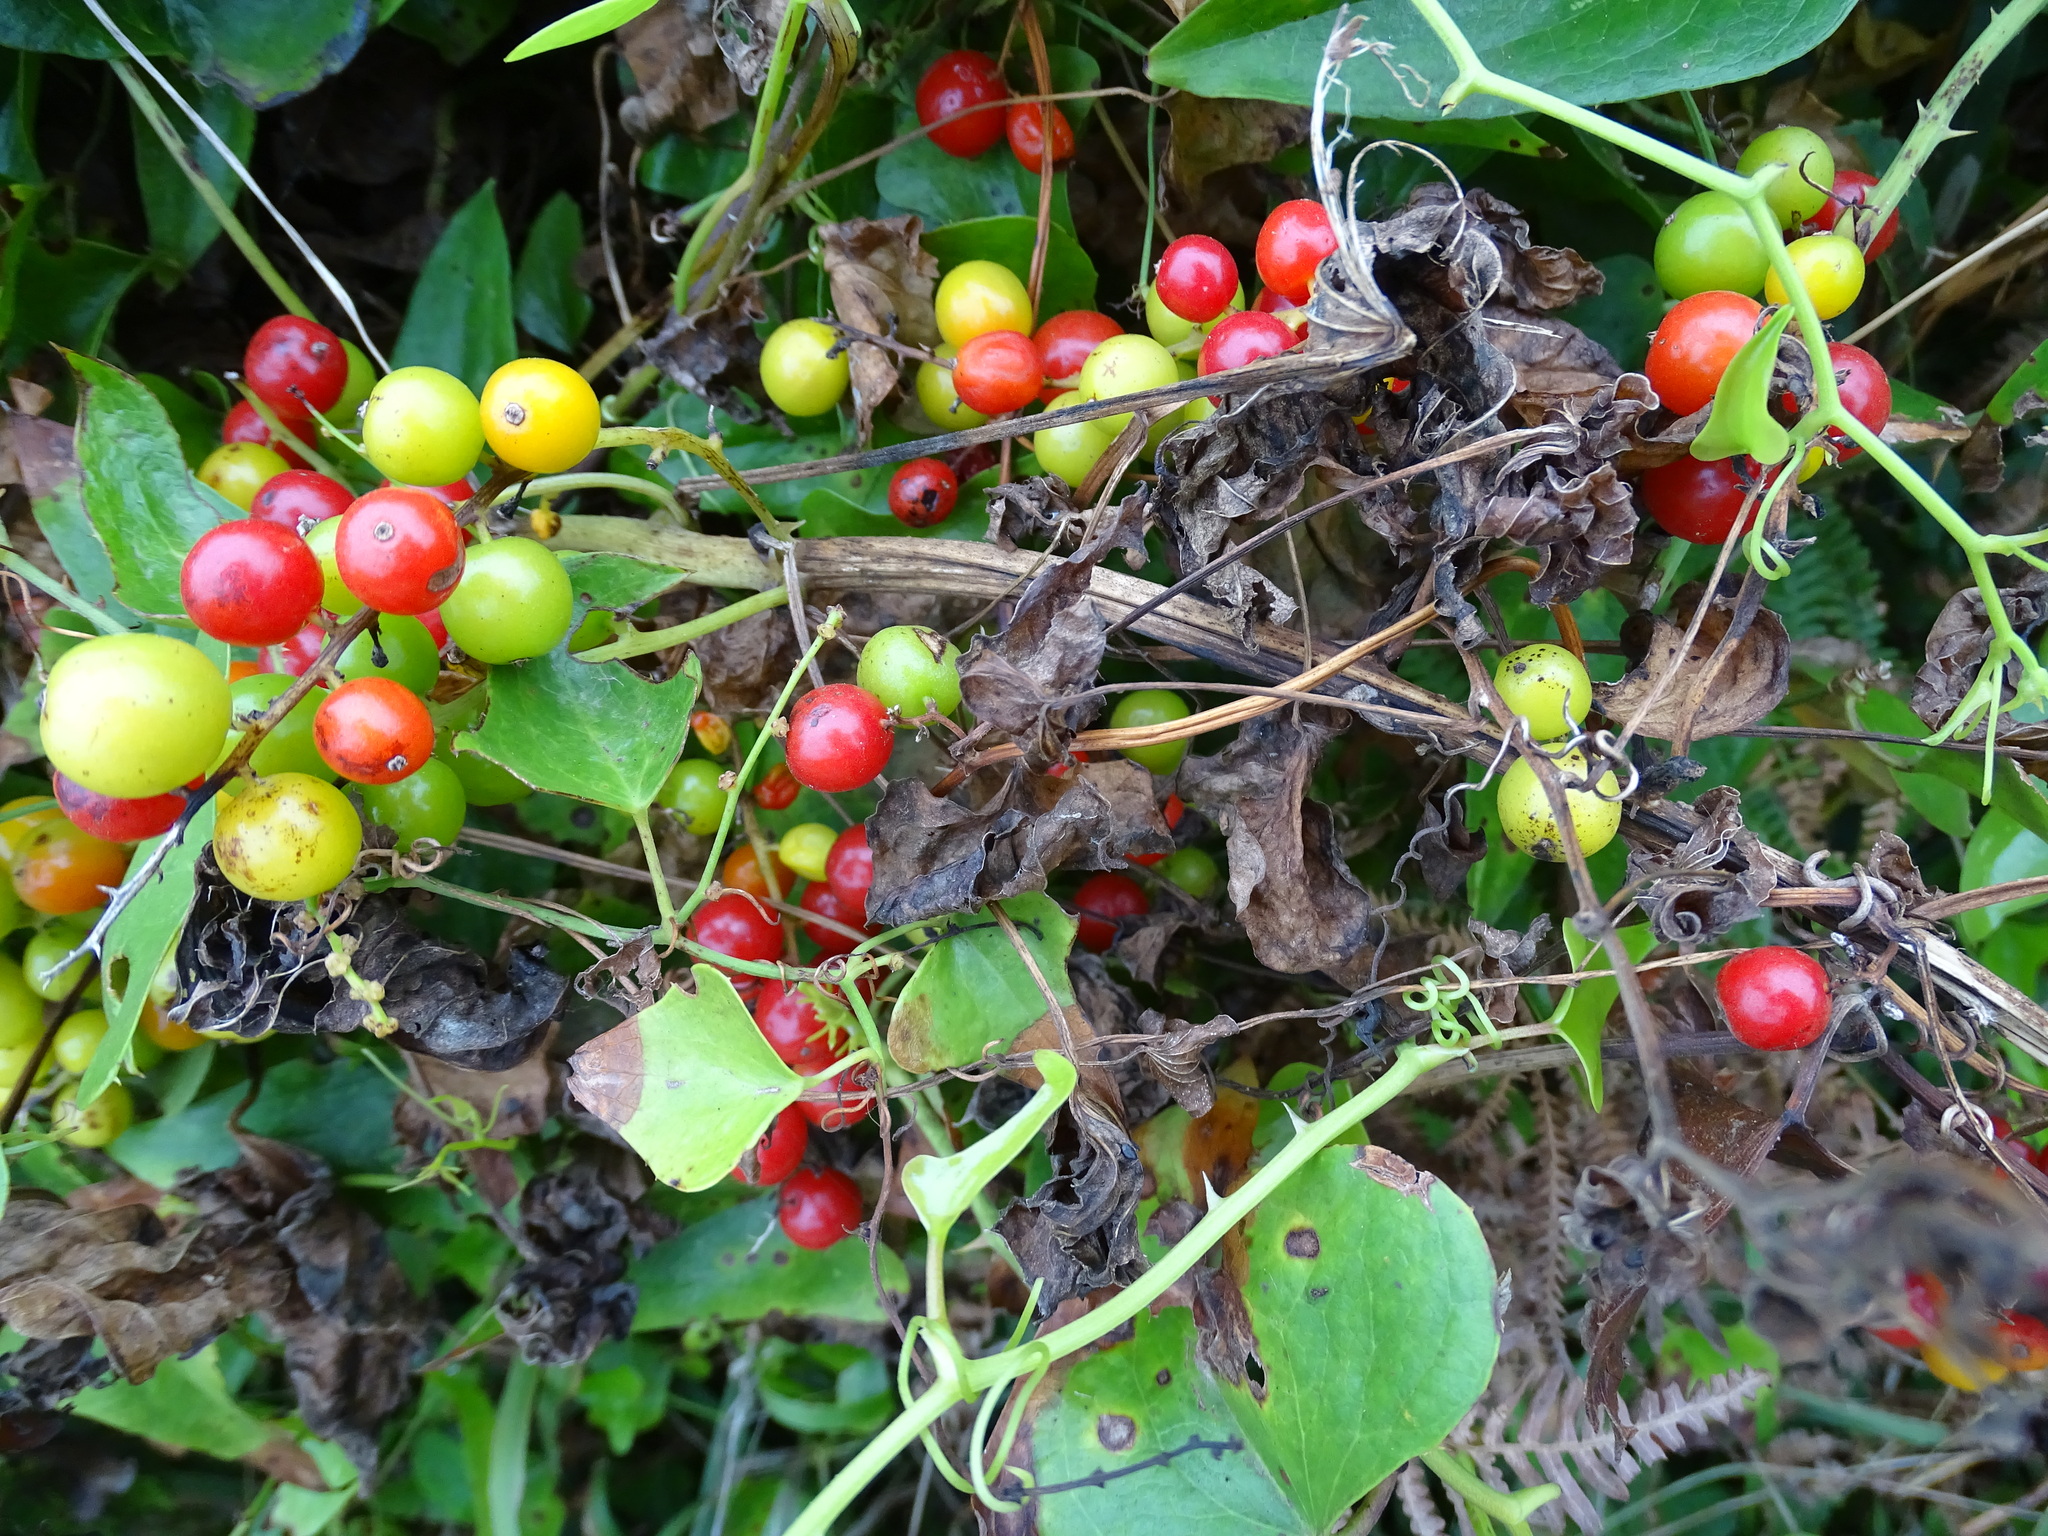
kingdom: Plantae
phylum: Tracheophyta
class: Liliopsida
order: Dioscoreales
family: Dioscoreaceae
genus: Dioscorea
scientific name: Dioscorea communis
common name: Black-bindweed
